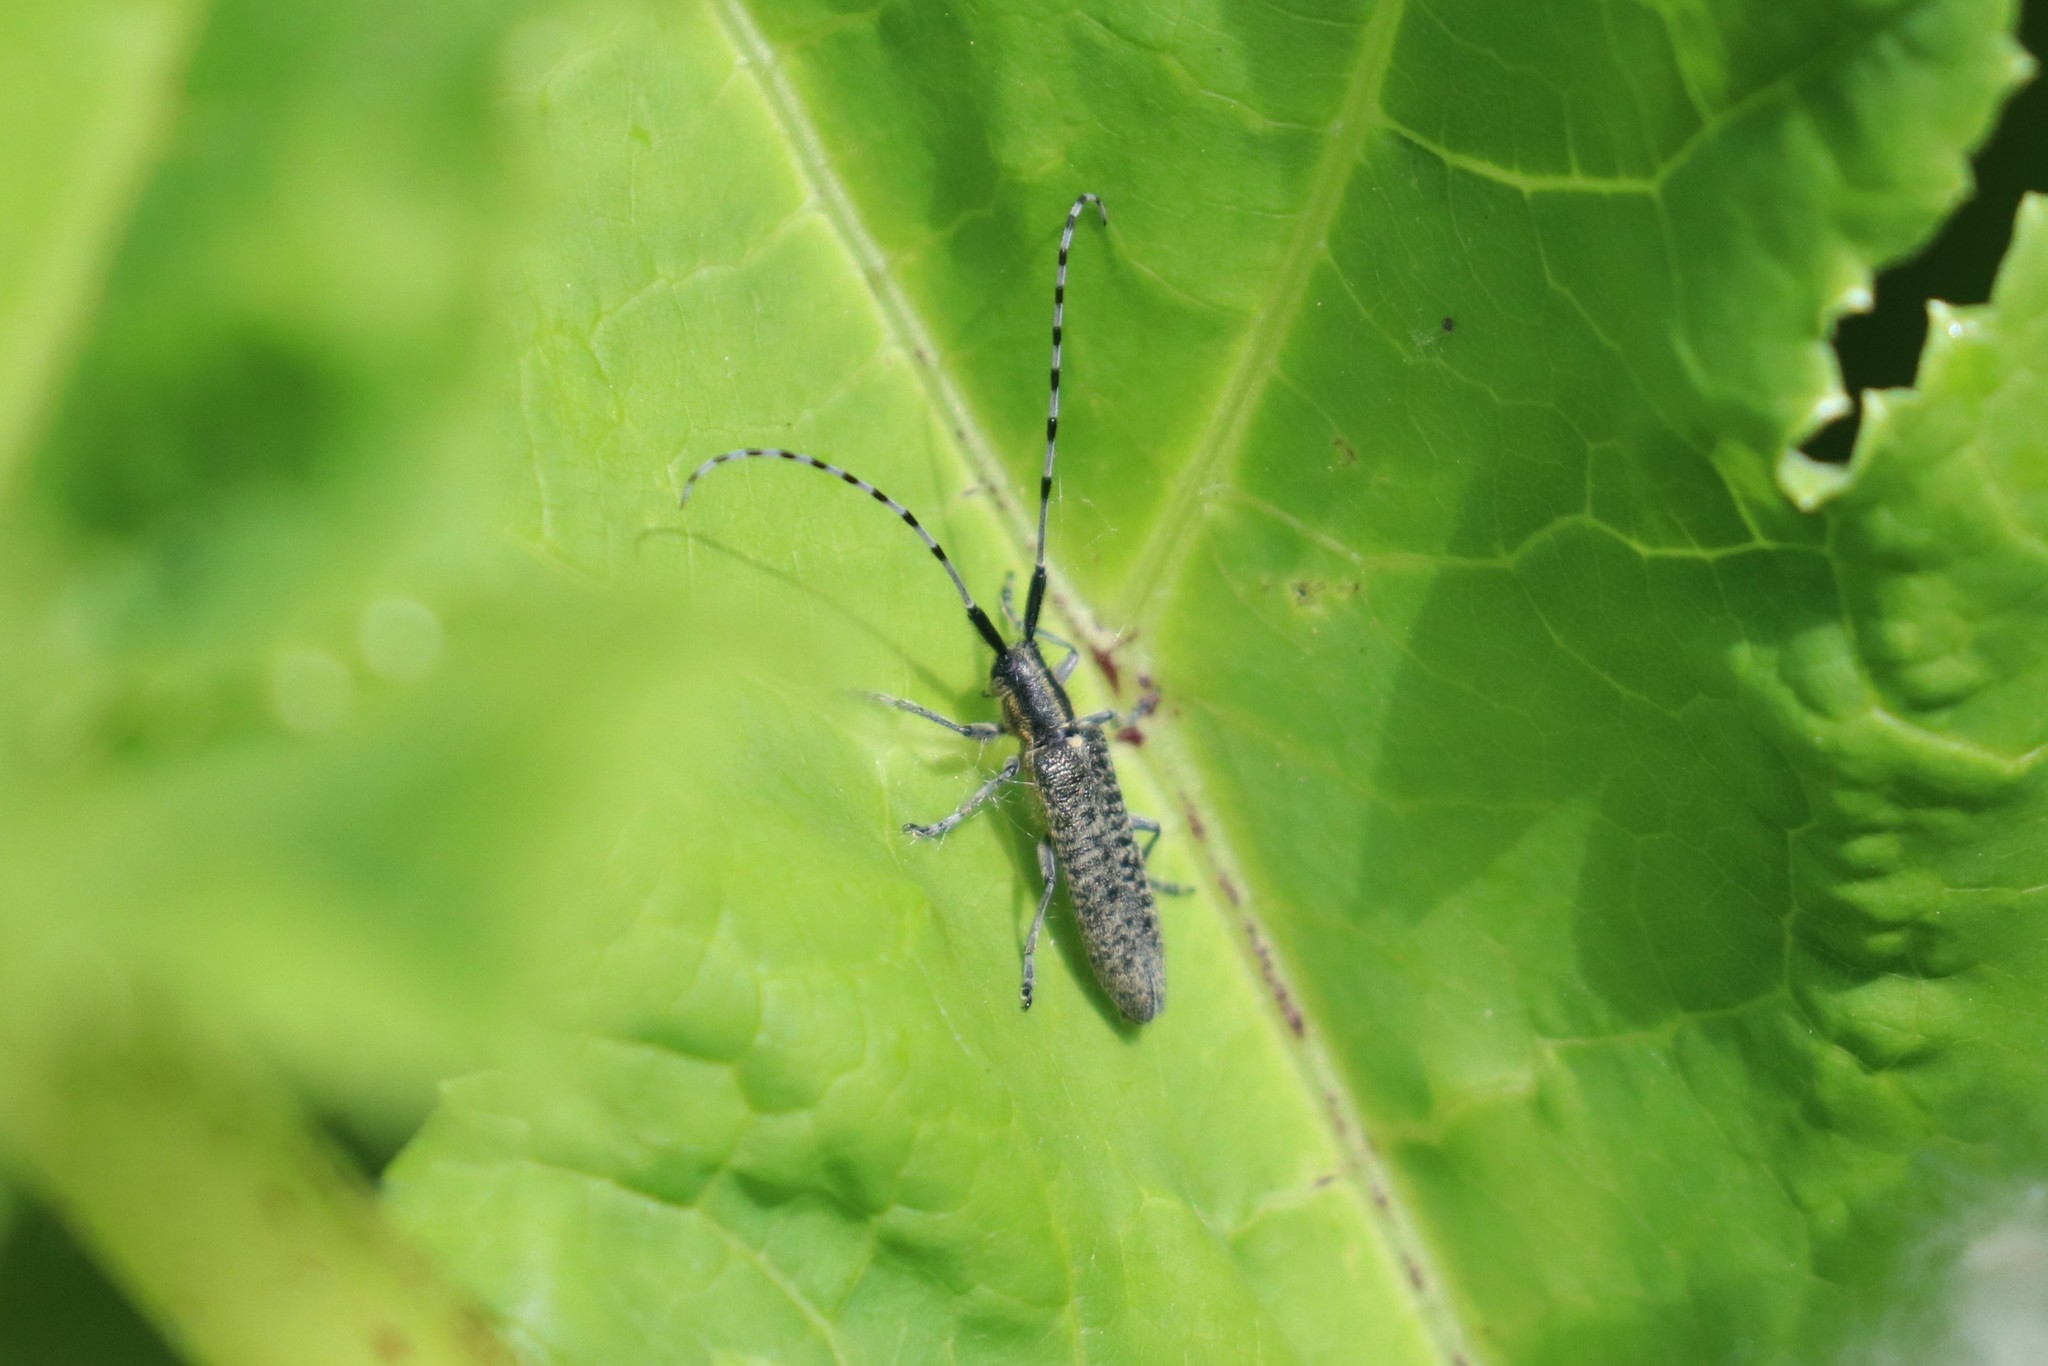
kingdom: Animalia
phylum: Arthropoda
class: Insecta
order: Coleoptera
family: Cerambycidae
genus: Agapanthia
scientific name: Agapanthia villosoviridescens
